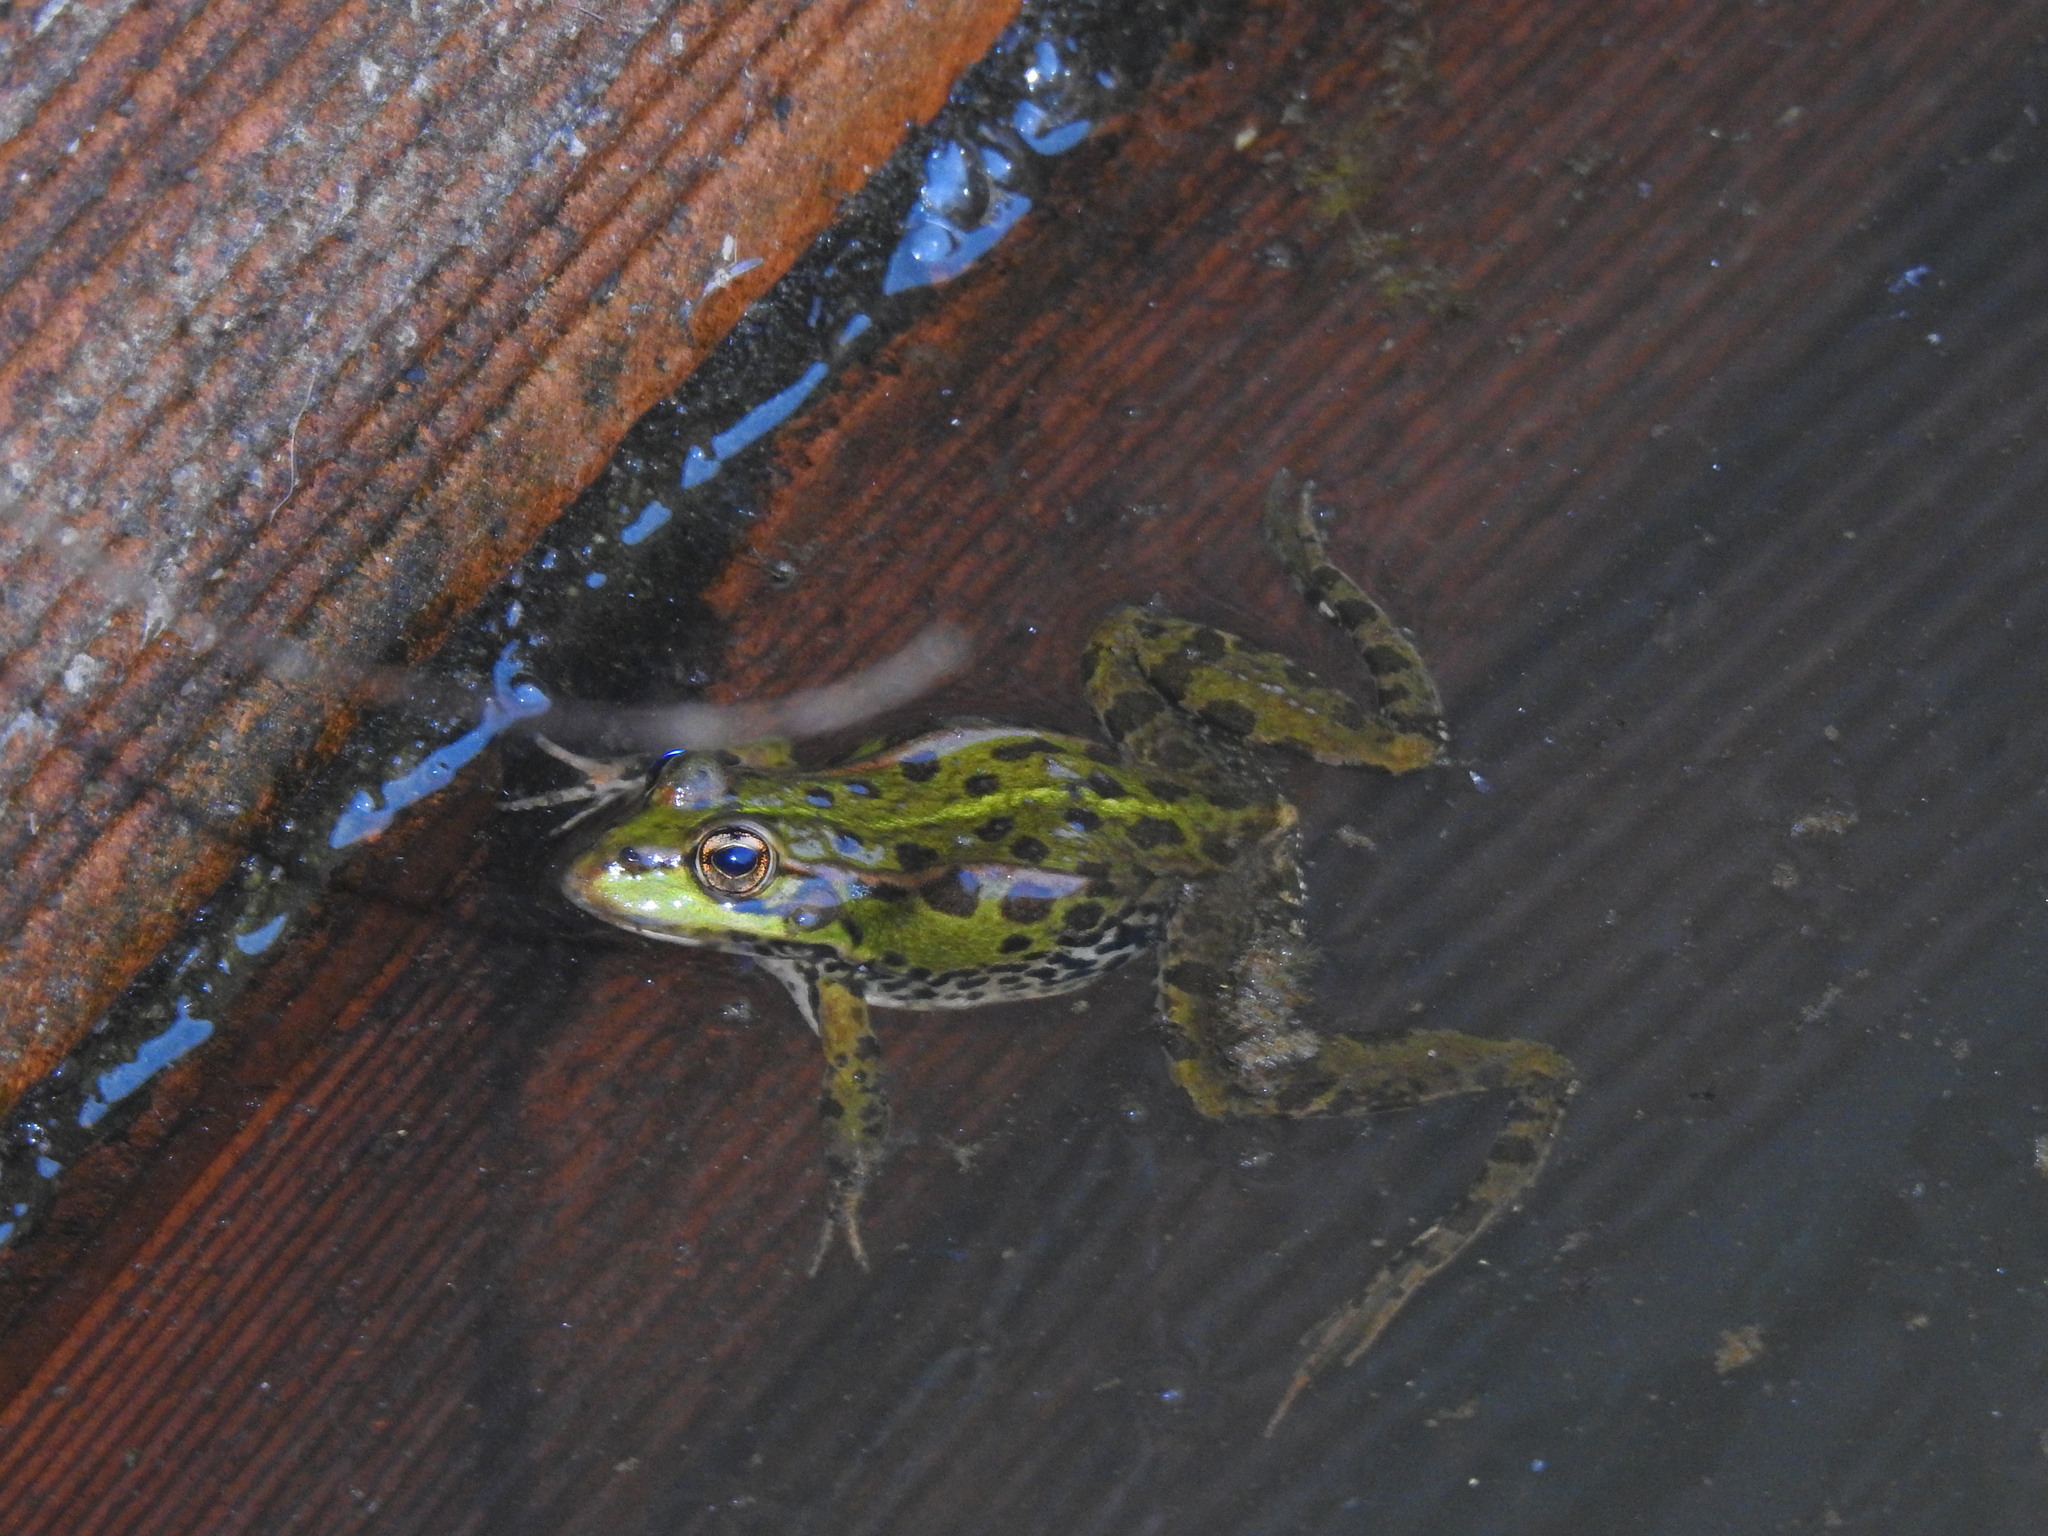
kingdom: Animalia
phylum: Chordata
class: Amphibia
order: Anura
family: Ranidae
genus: Pelophylax
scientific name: Pelophylax perezi
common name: Perez's frog
